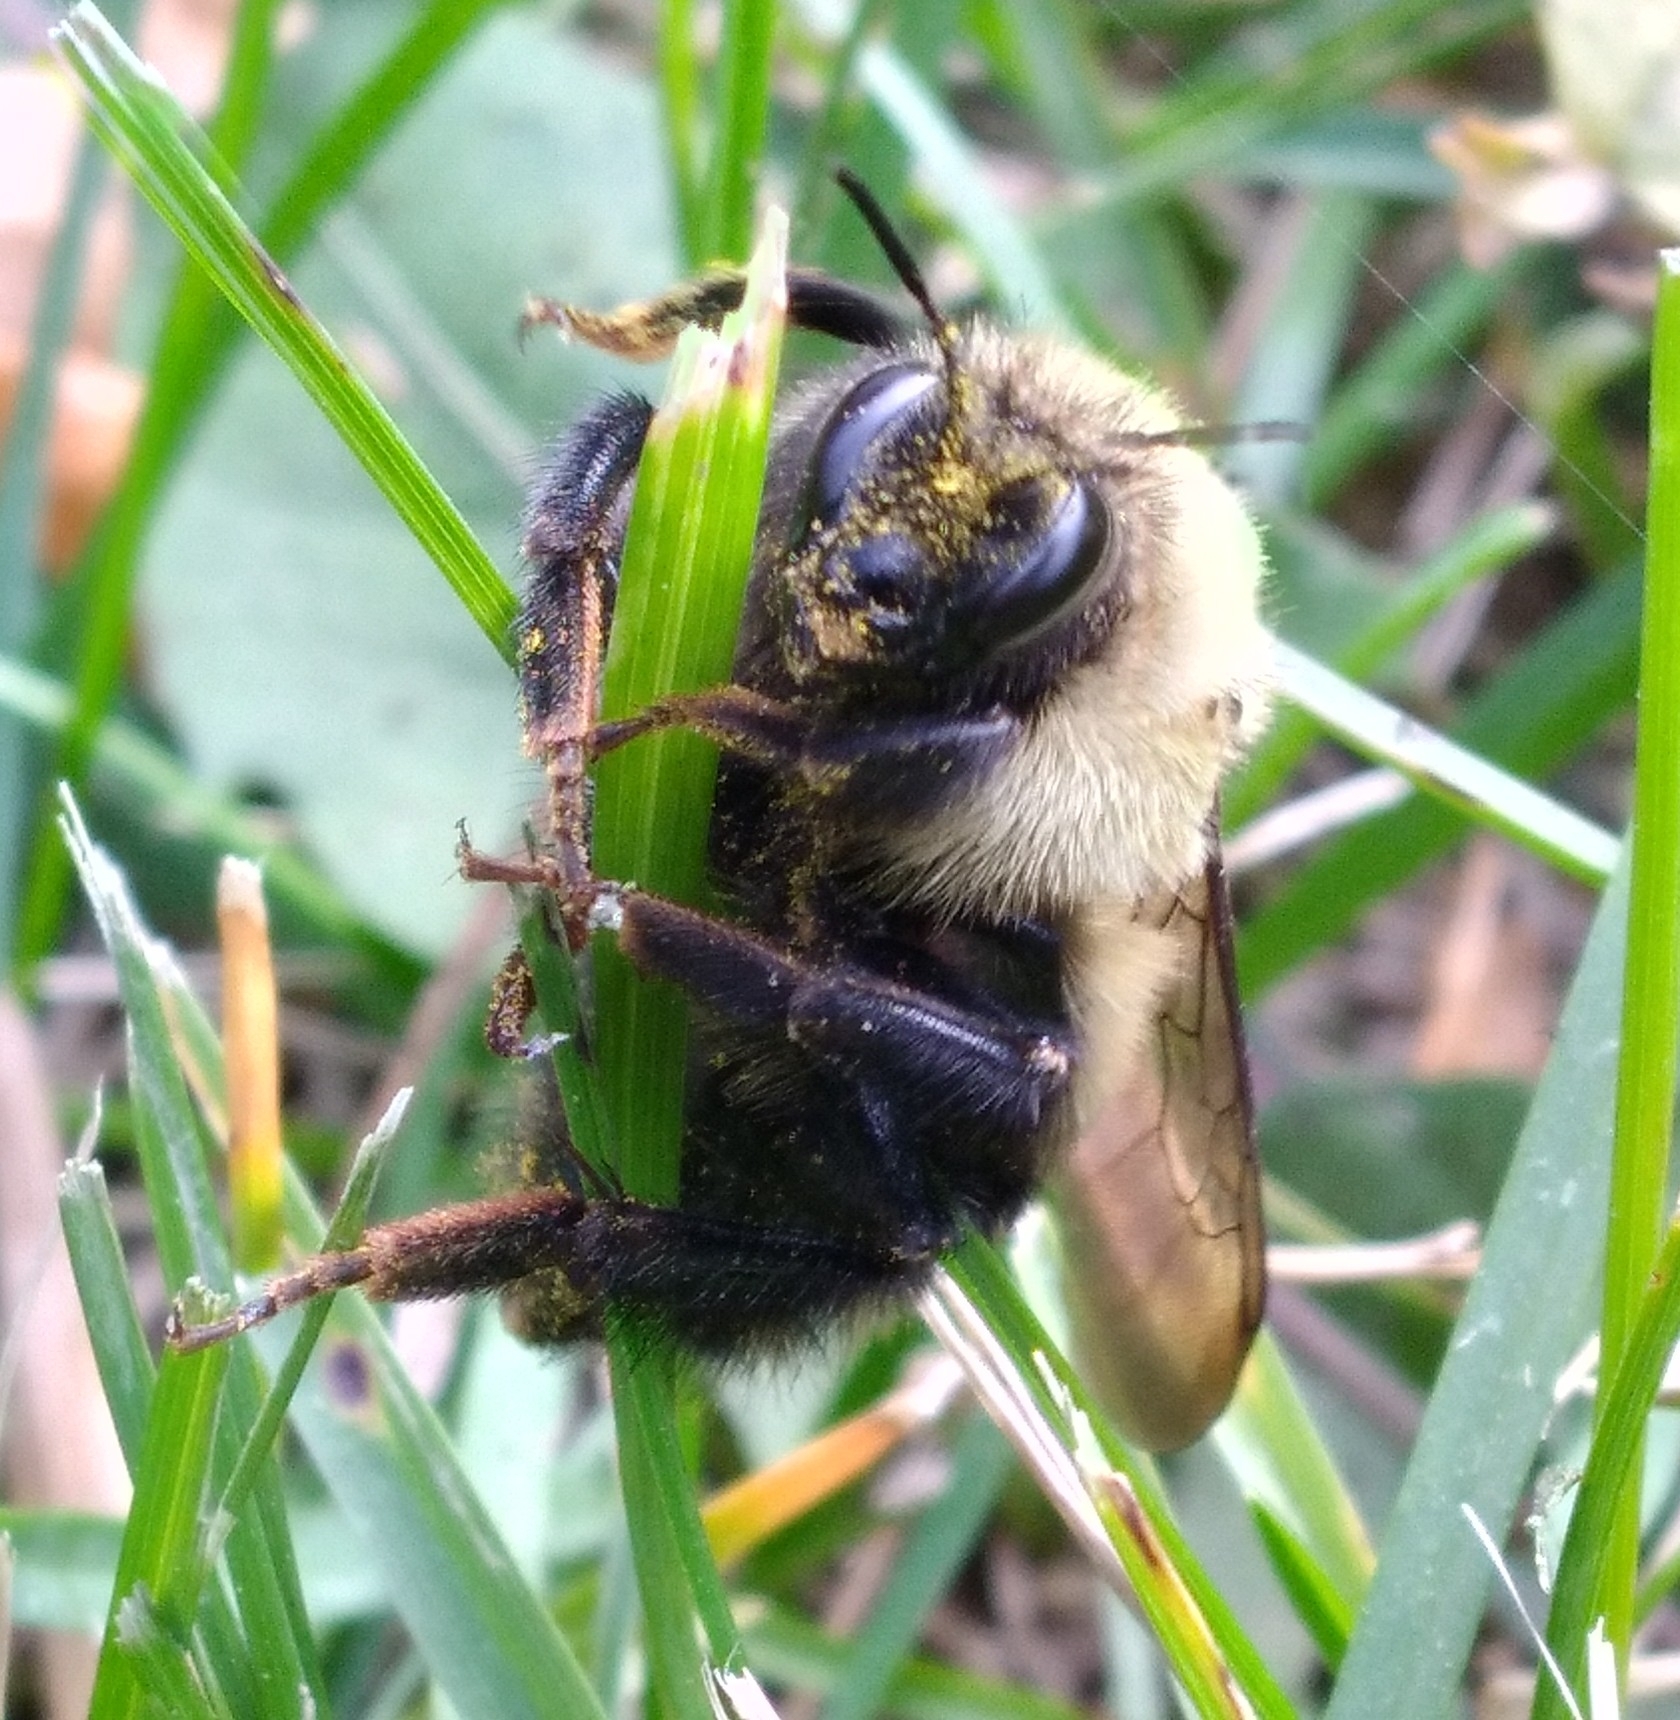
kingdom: Animalia
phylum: Arthropoda
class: Insecta
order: Hymenoptera
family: Apidae
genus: Bombus
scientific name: Bombus rufocinctus
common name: Red-belted bumble bee
